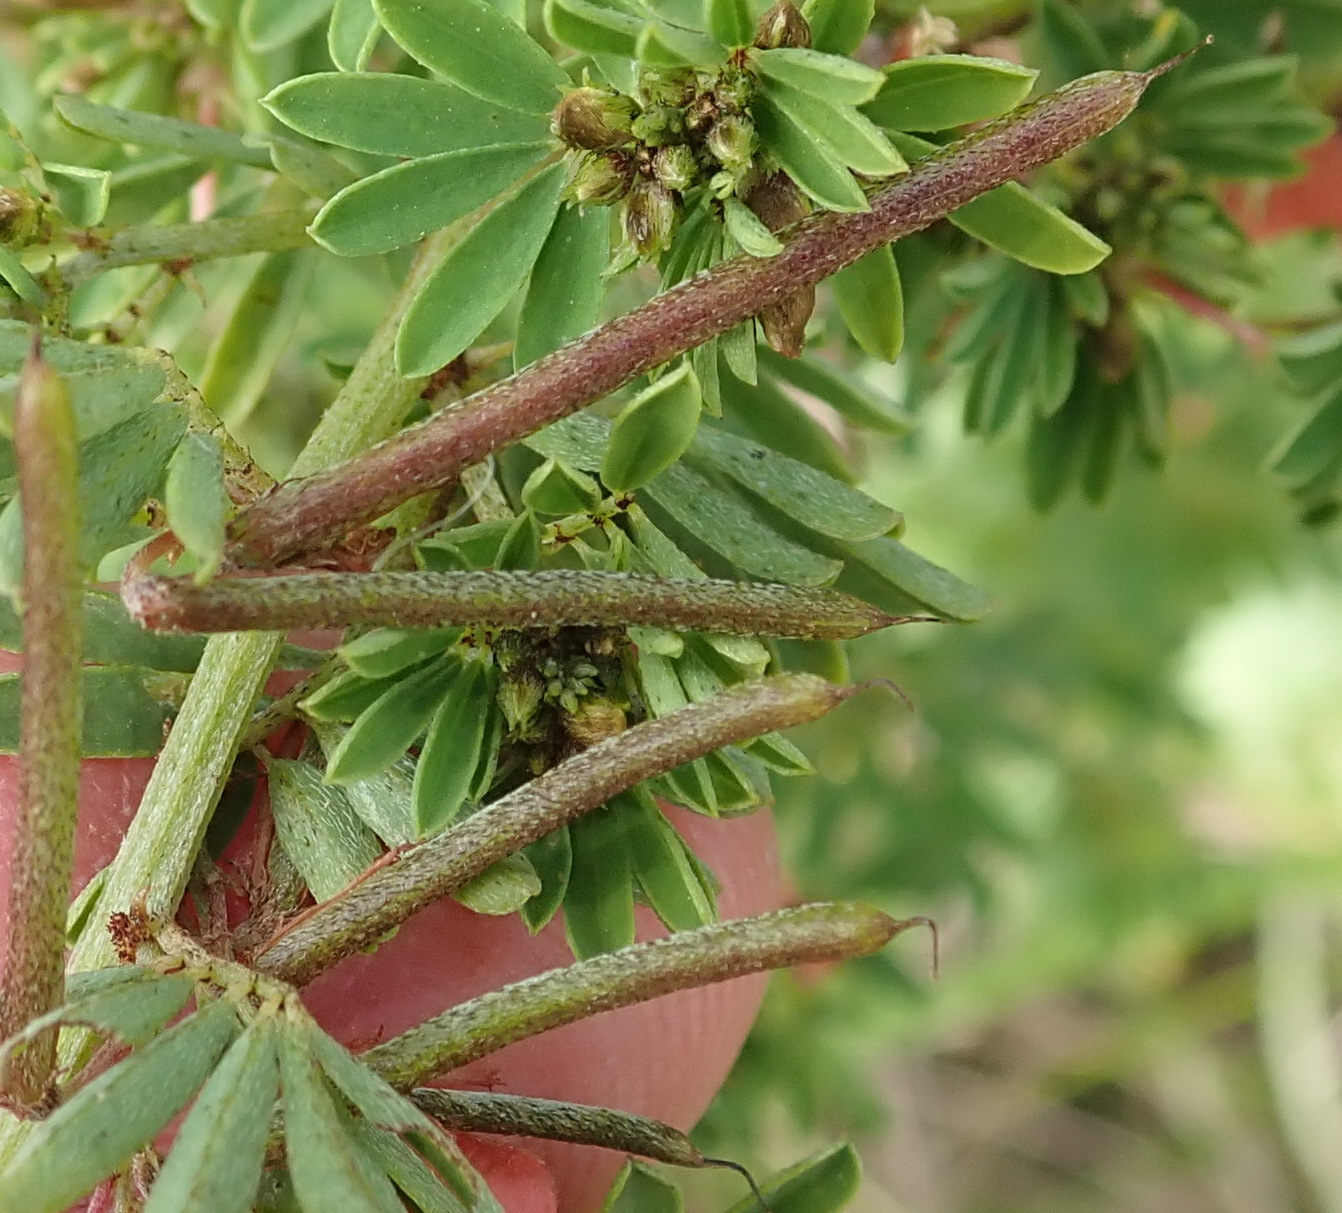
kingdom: Plantae
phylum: Tracheophyta
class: Magnoliopsida
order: Fabales
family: Fabaceae
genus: Indigofera
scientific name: Indigofera stricta
